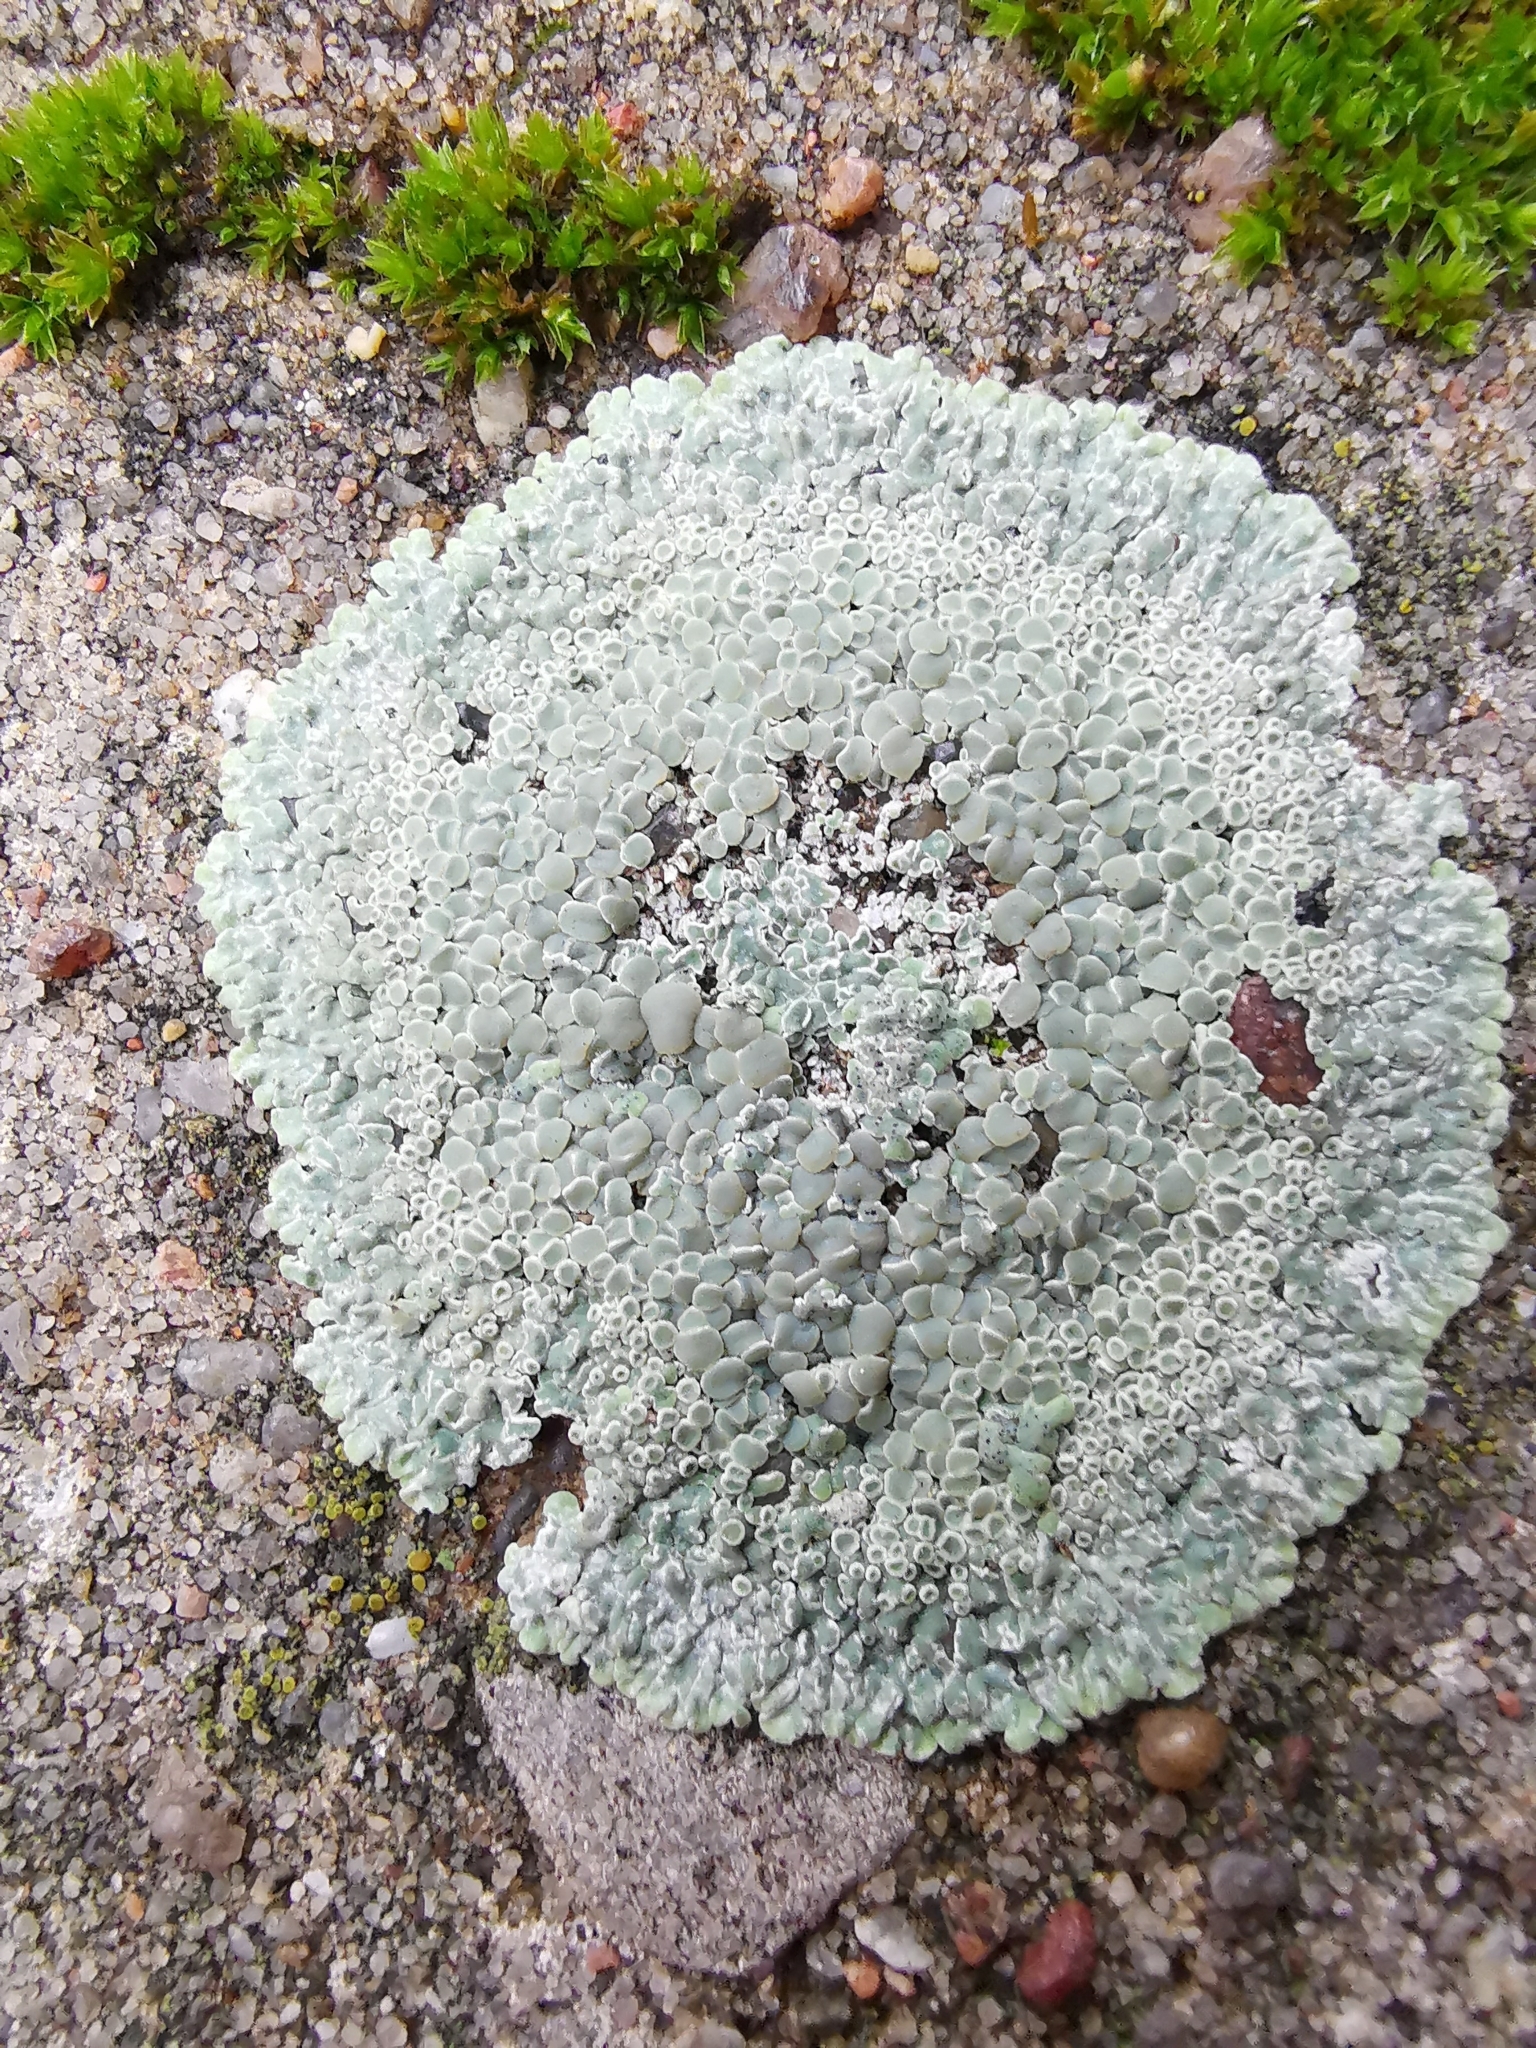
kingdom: Fungi
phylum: Ascomycota
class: Lecanoromycetes
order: Lecanorales
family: Lecanoraceae
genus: Protoparmeliopsis
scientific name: Protoparmeliopsis muralis
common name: Stonewall rim lichen
